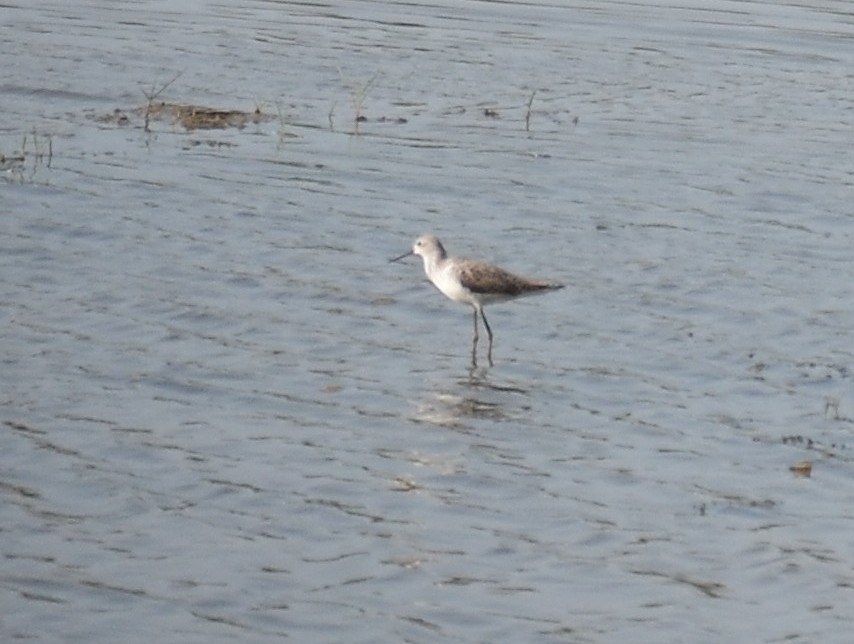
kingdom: Animalia
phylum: Chordata
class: Aves
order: Charadriiformes
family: Scolopacidae
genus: Tringa
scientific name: Tringa stagnatilis
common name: Marsh sandpiper
